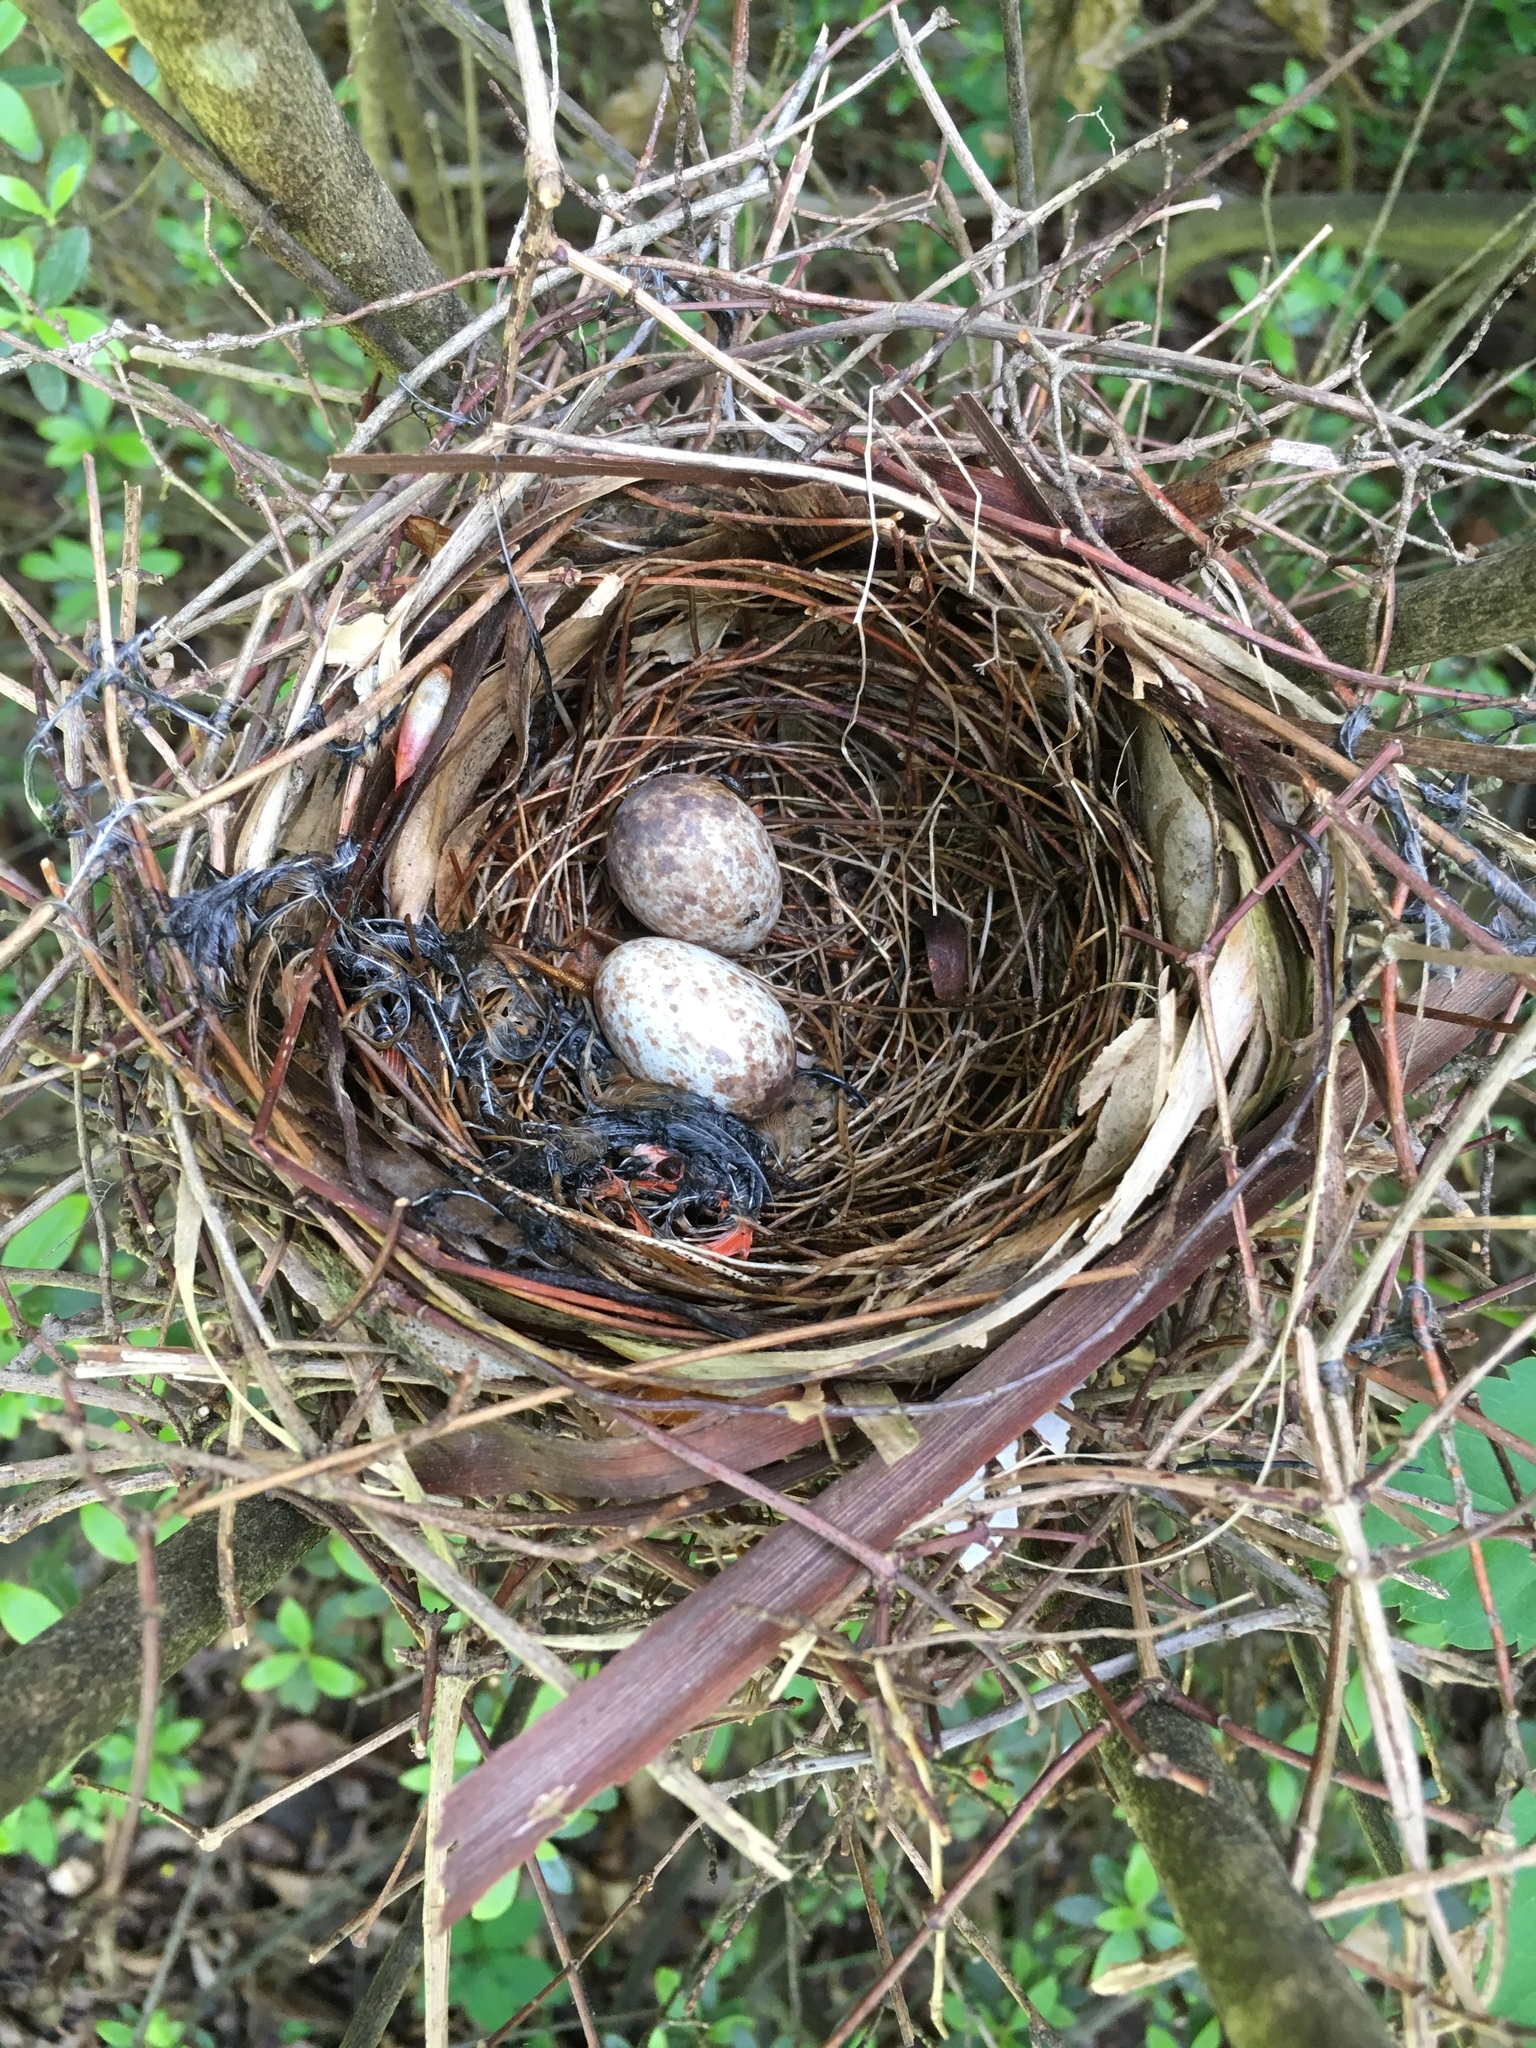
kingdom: Animalia
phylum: Chordata
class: Aves
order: Passeriformes
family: Cardinalidae
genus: Cardinalis
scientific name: Cardinalis cardinalis
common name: Northern cardinal
